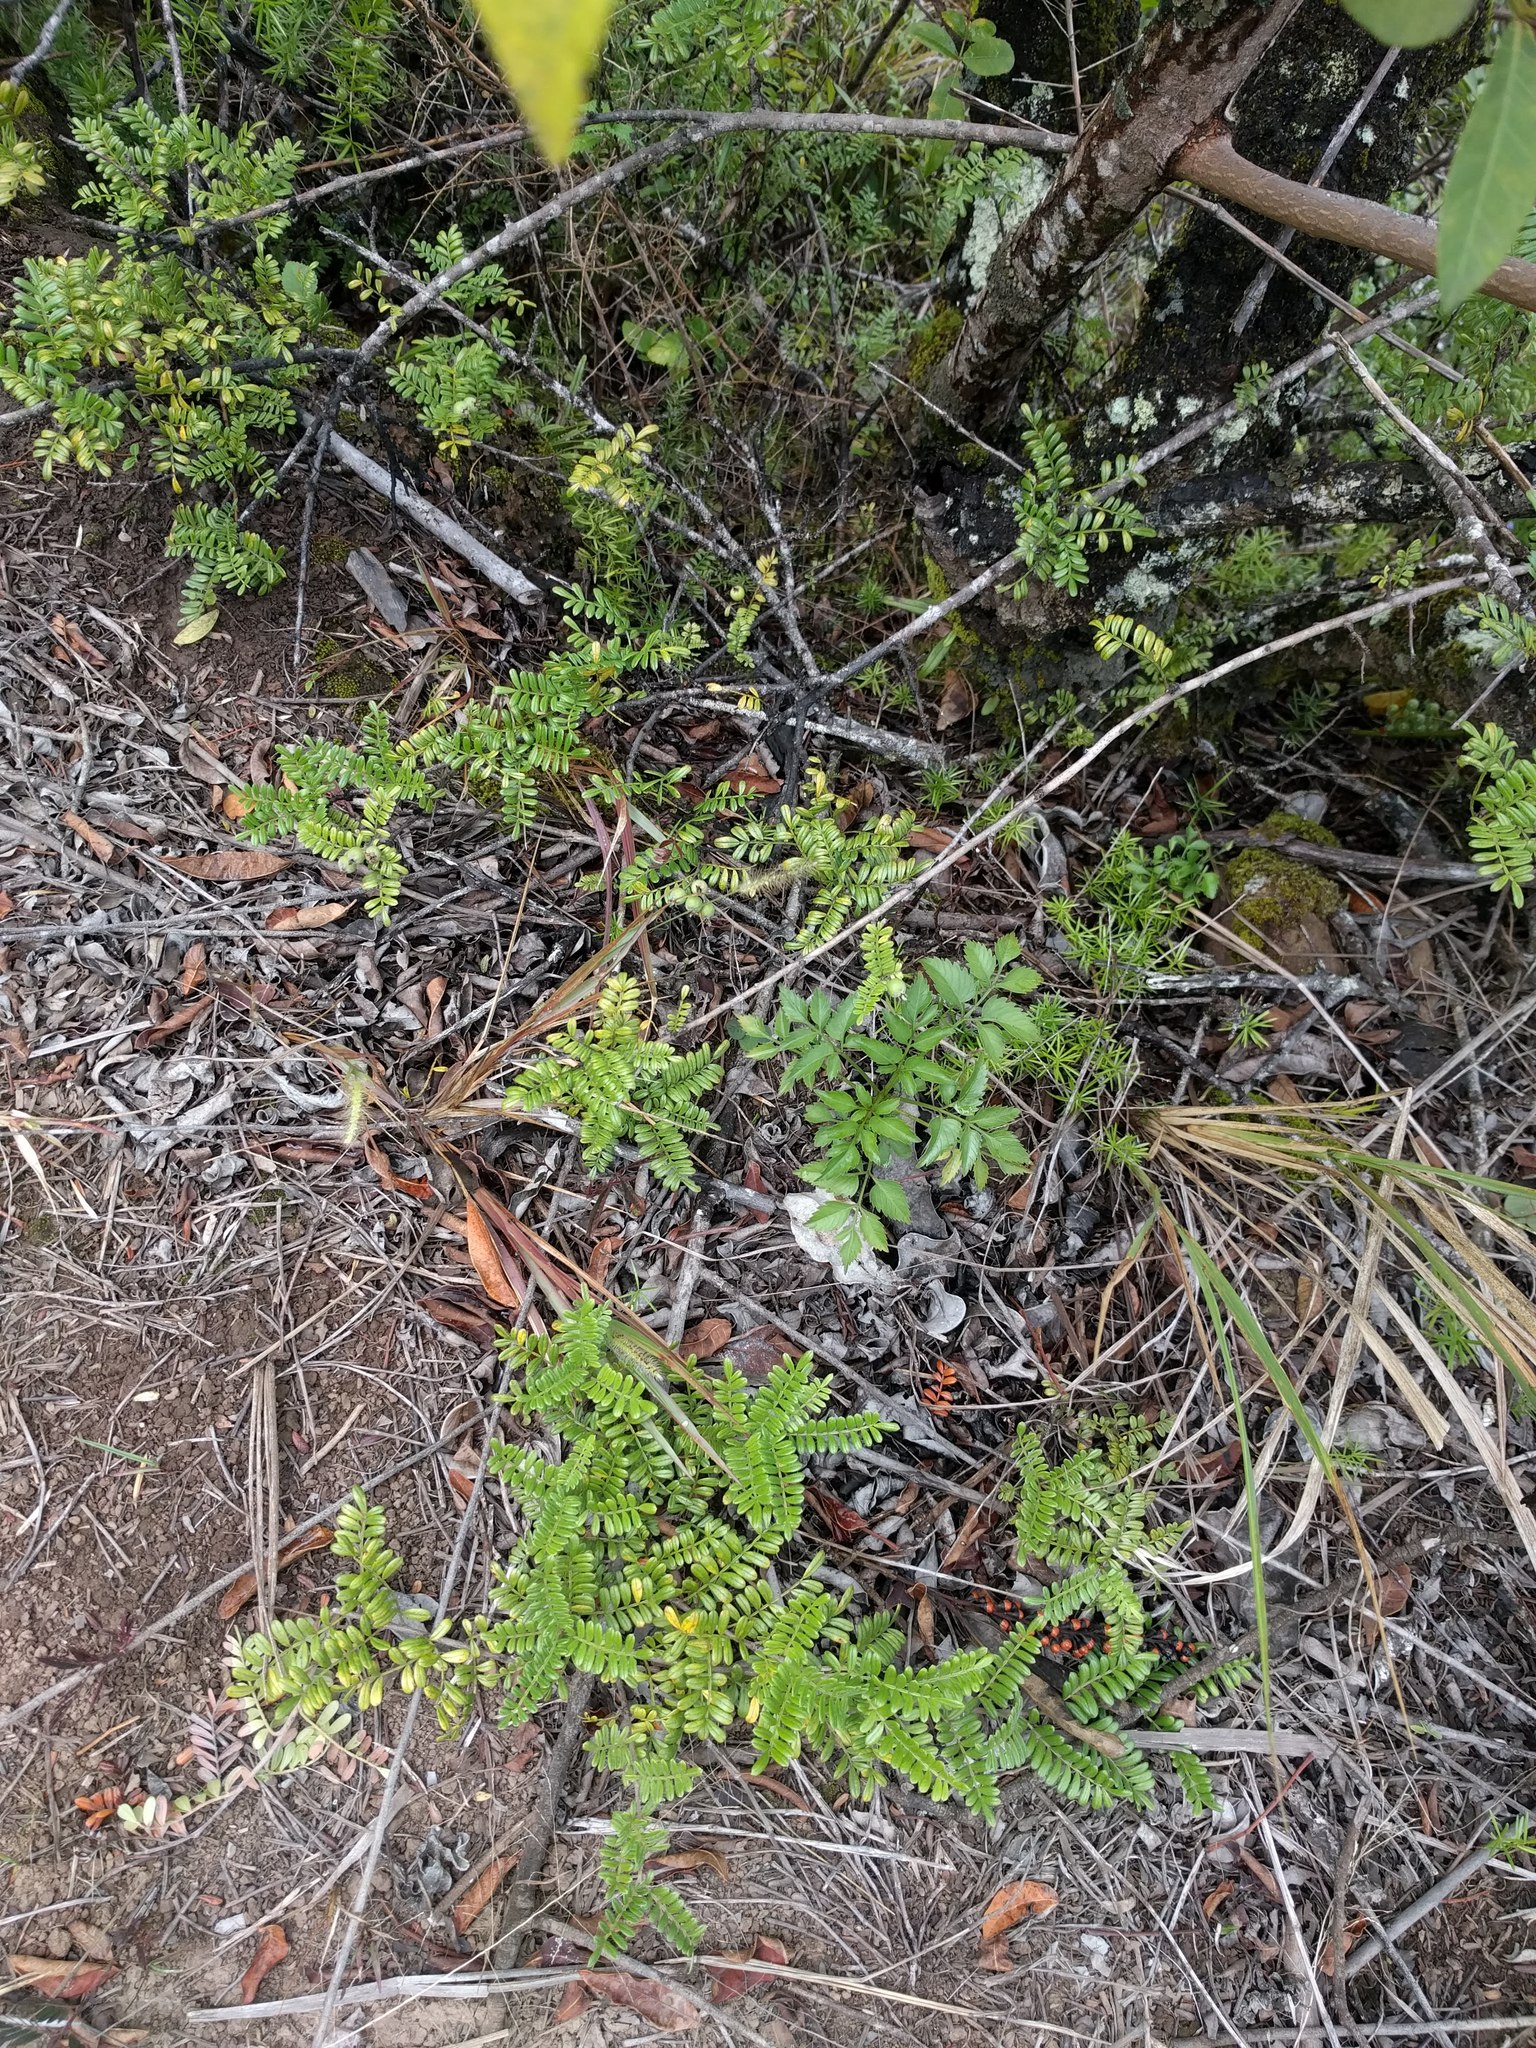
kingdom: Plantae
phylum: Tracheophyta
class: Magnoliopsida
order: Rosales
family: Rosaceae
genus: Osteomeles
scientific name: Osteomeles anthyllidifolia
